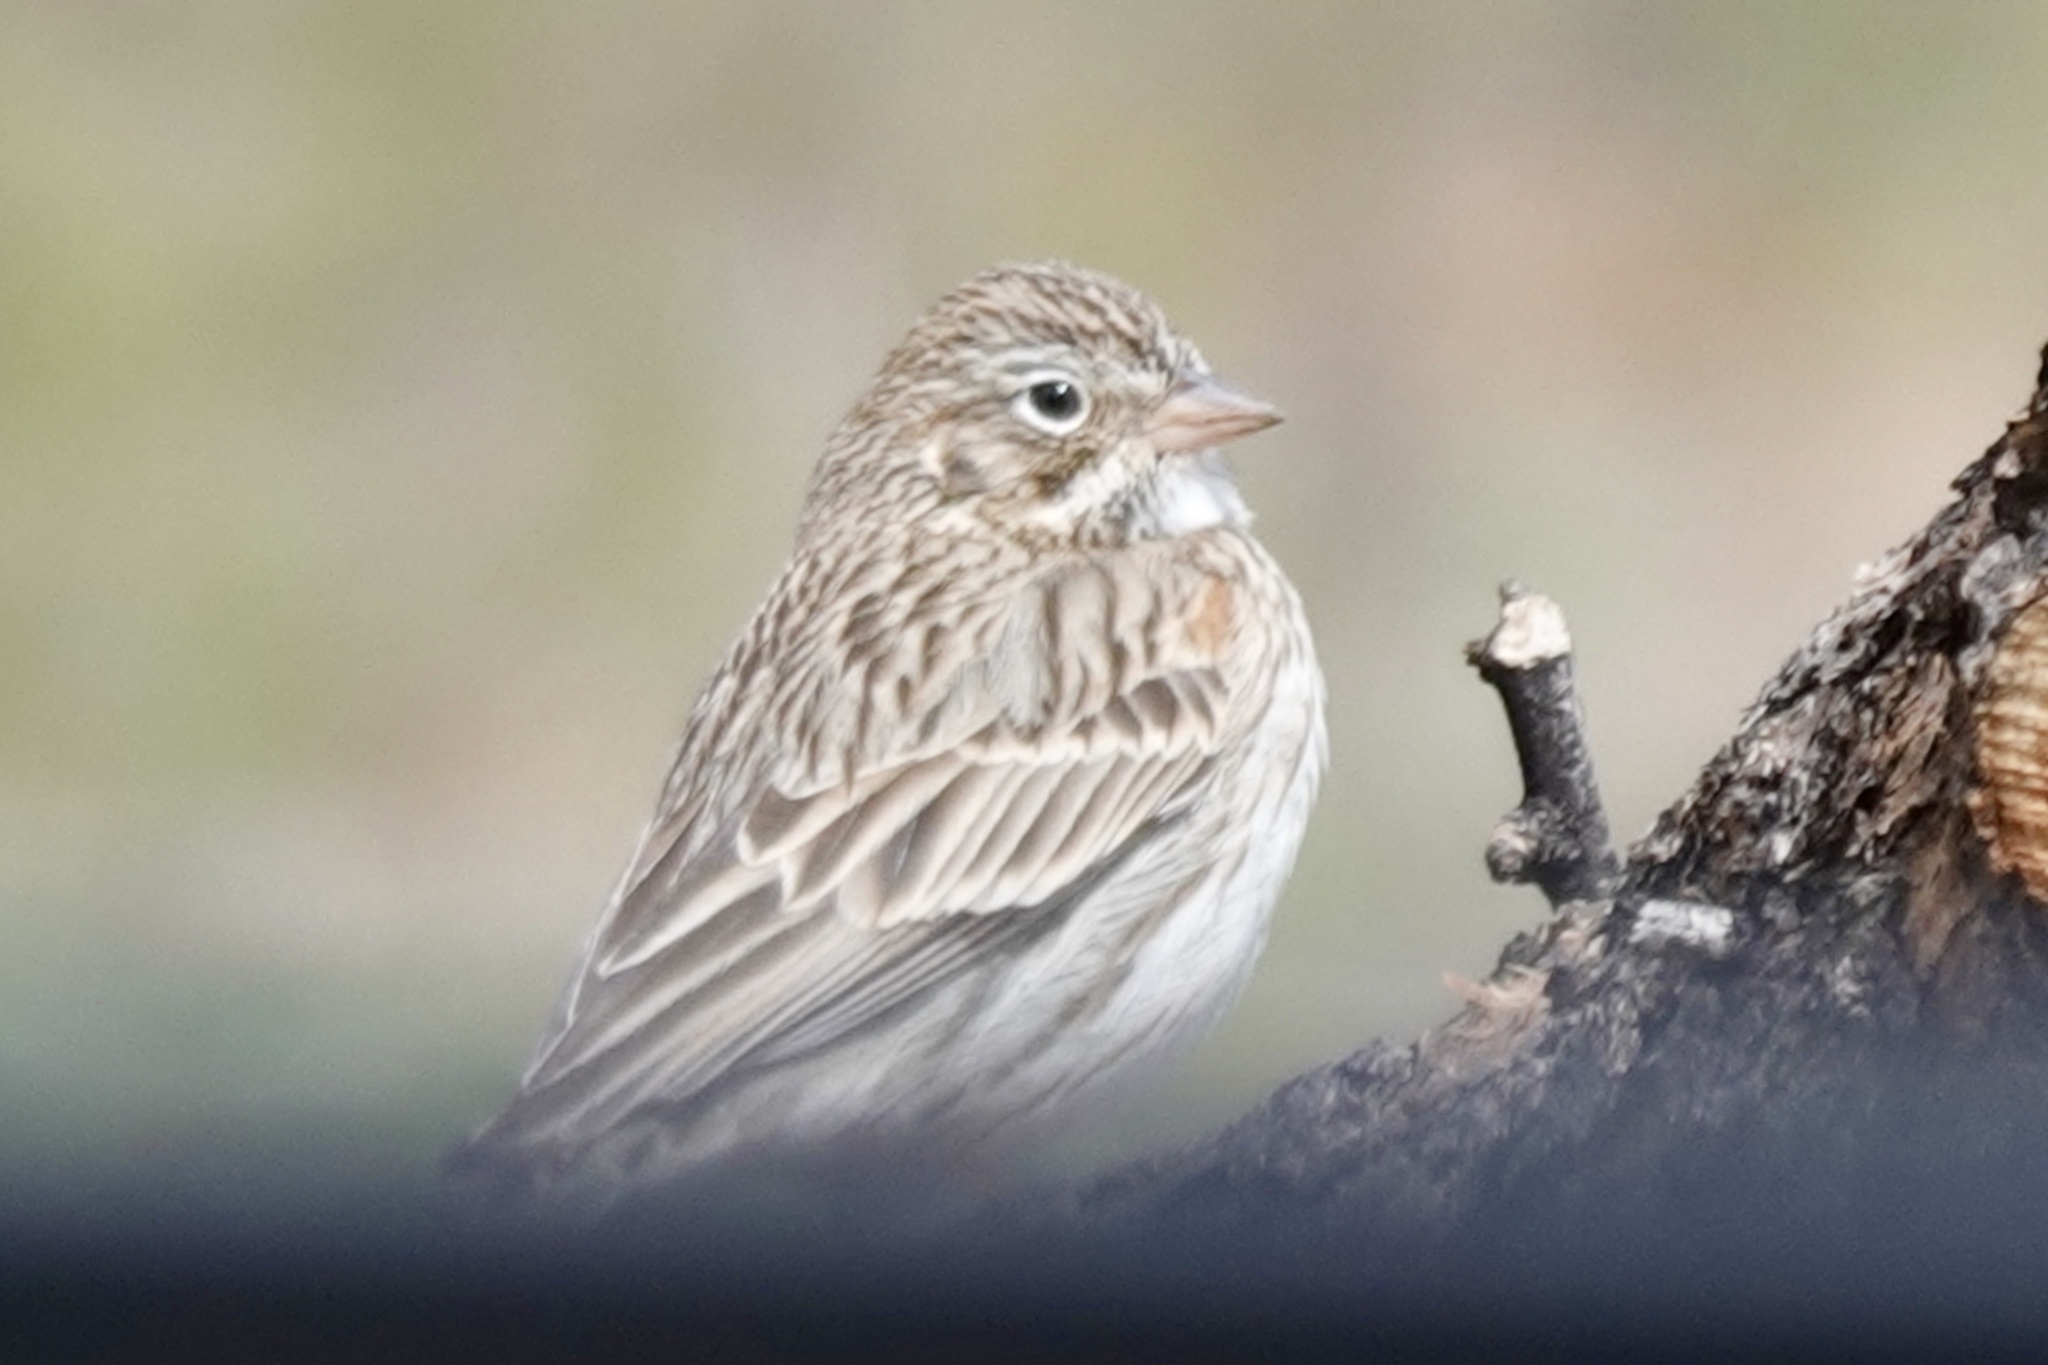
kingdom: Animalia
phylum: Chordata
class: Aves
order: Passeriformes
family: Passerellidae
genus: Pooecetes
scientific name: Pooecetes gramineus
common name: Vesper sparrow
